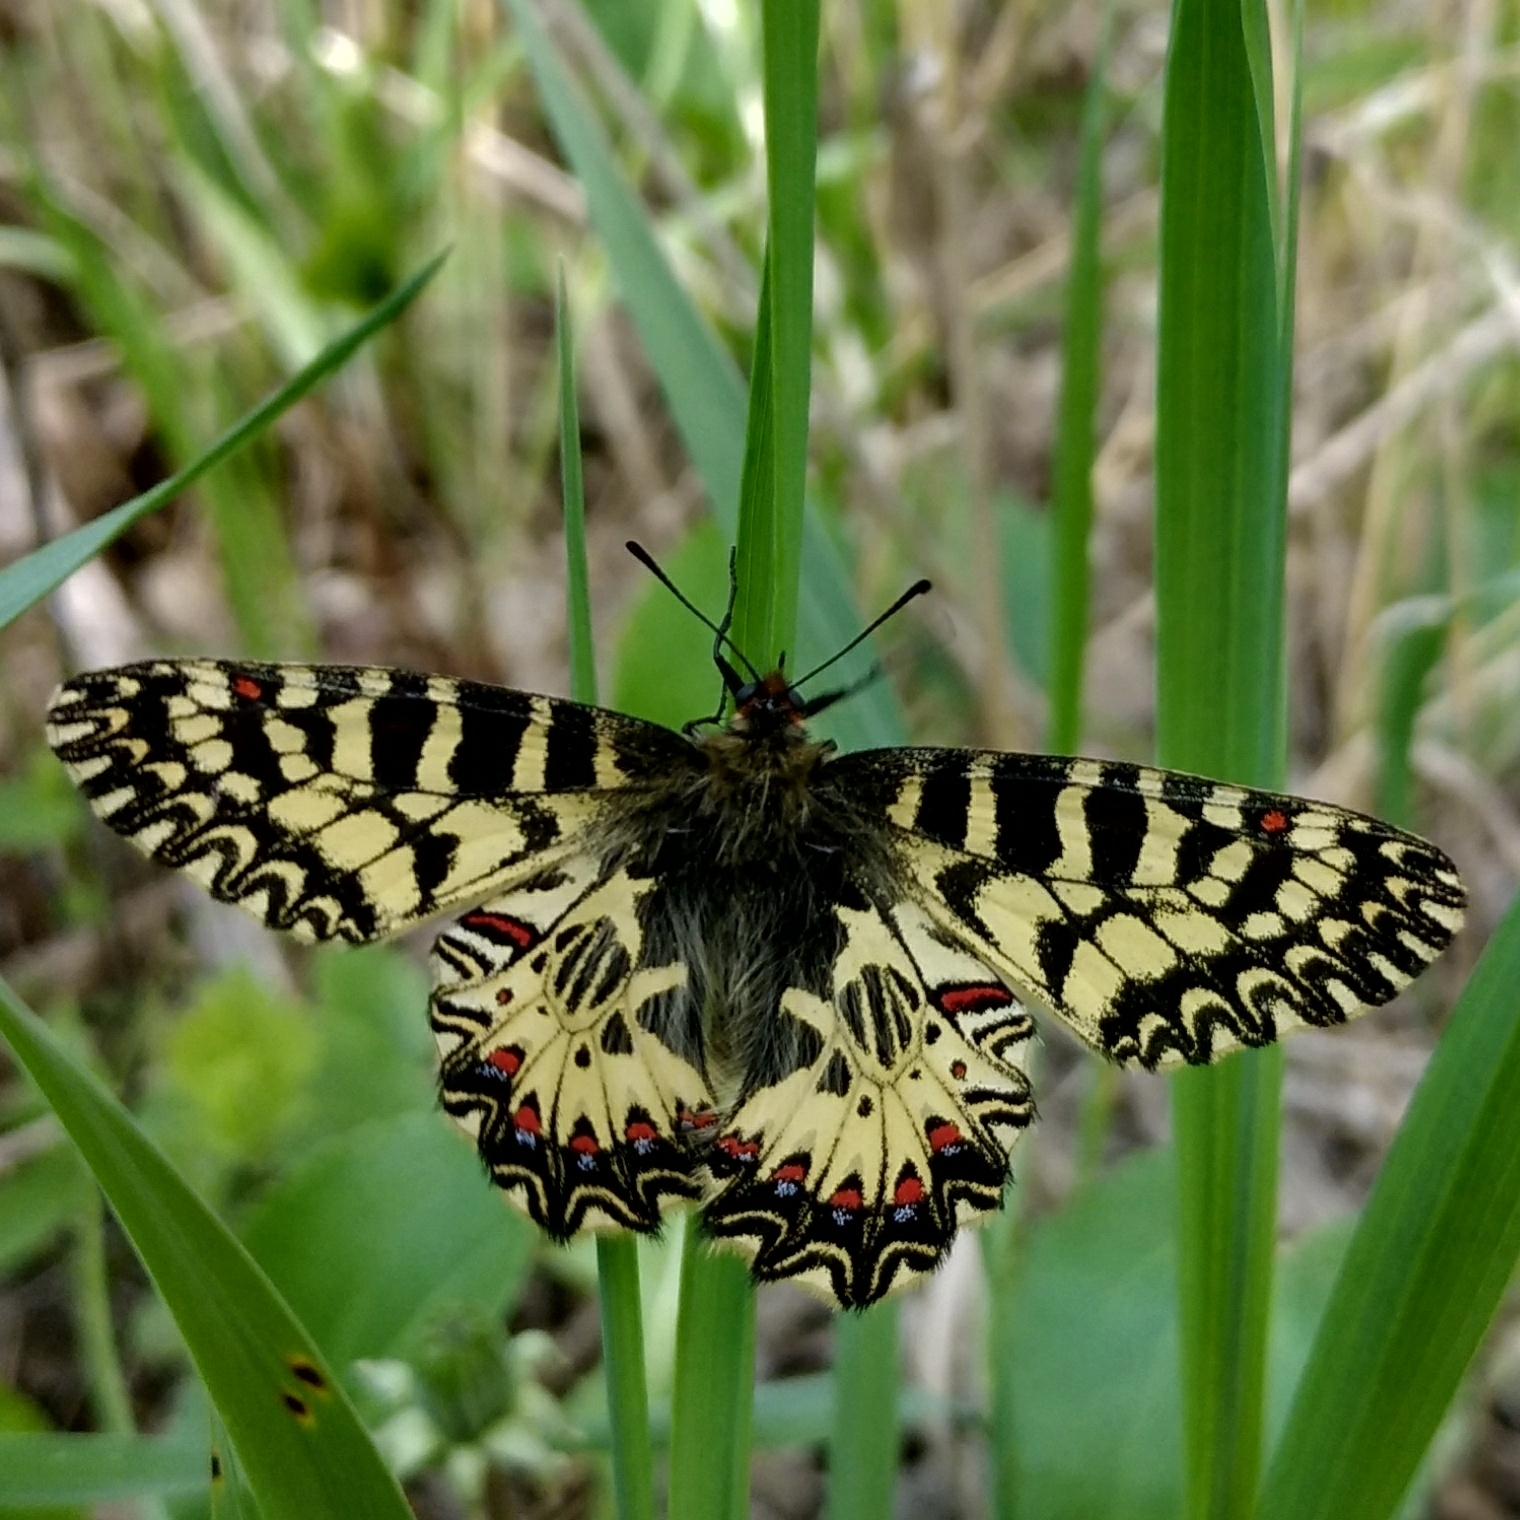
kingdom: Animalia
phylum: Arthropoda
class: Insecta
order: Lepidoptera
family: Papilionidae
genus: Zerynthia
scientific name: Zerynthia polyxena
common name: Southern festoon
